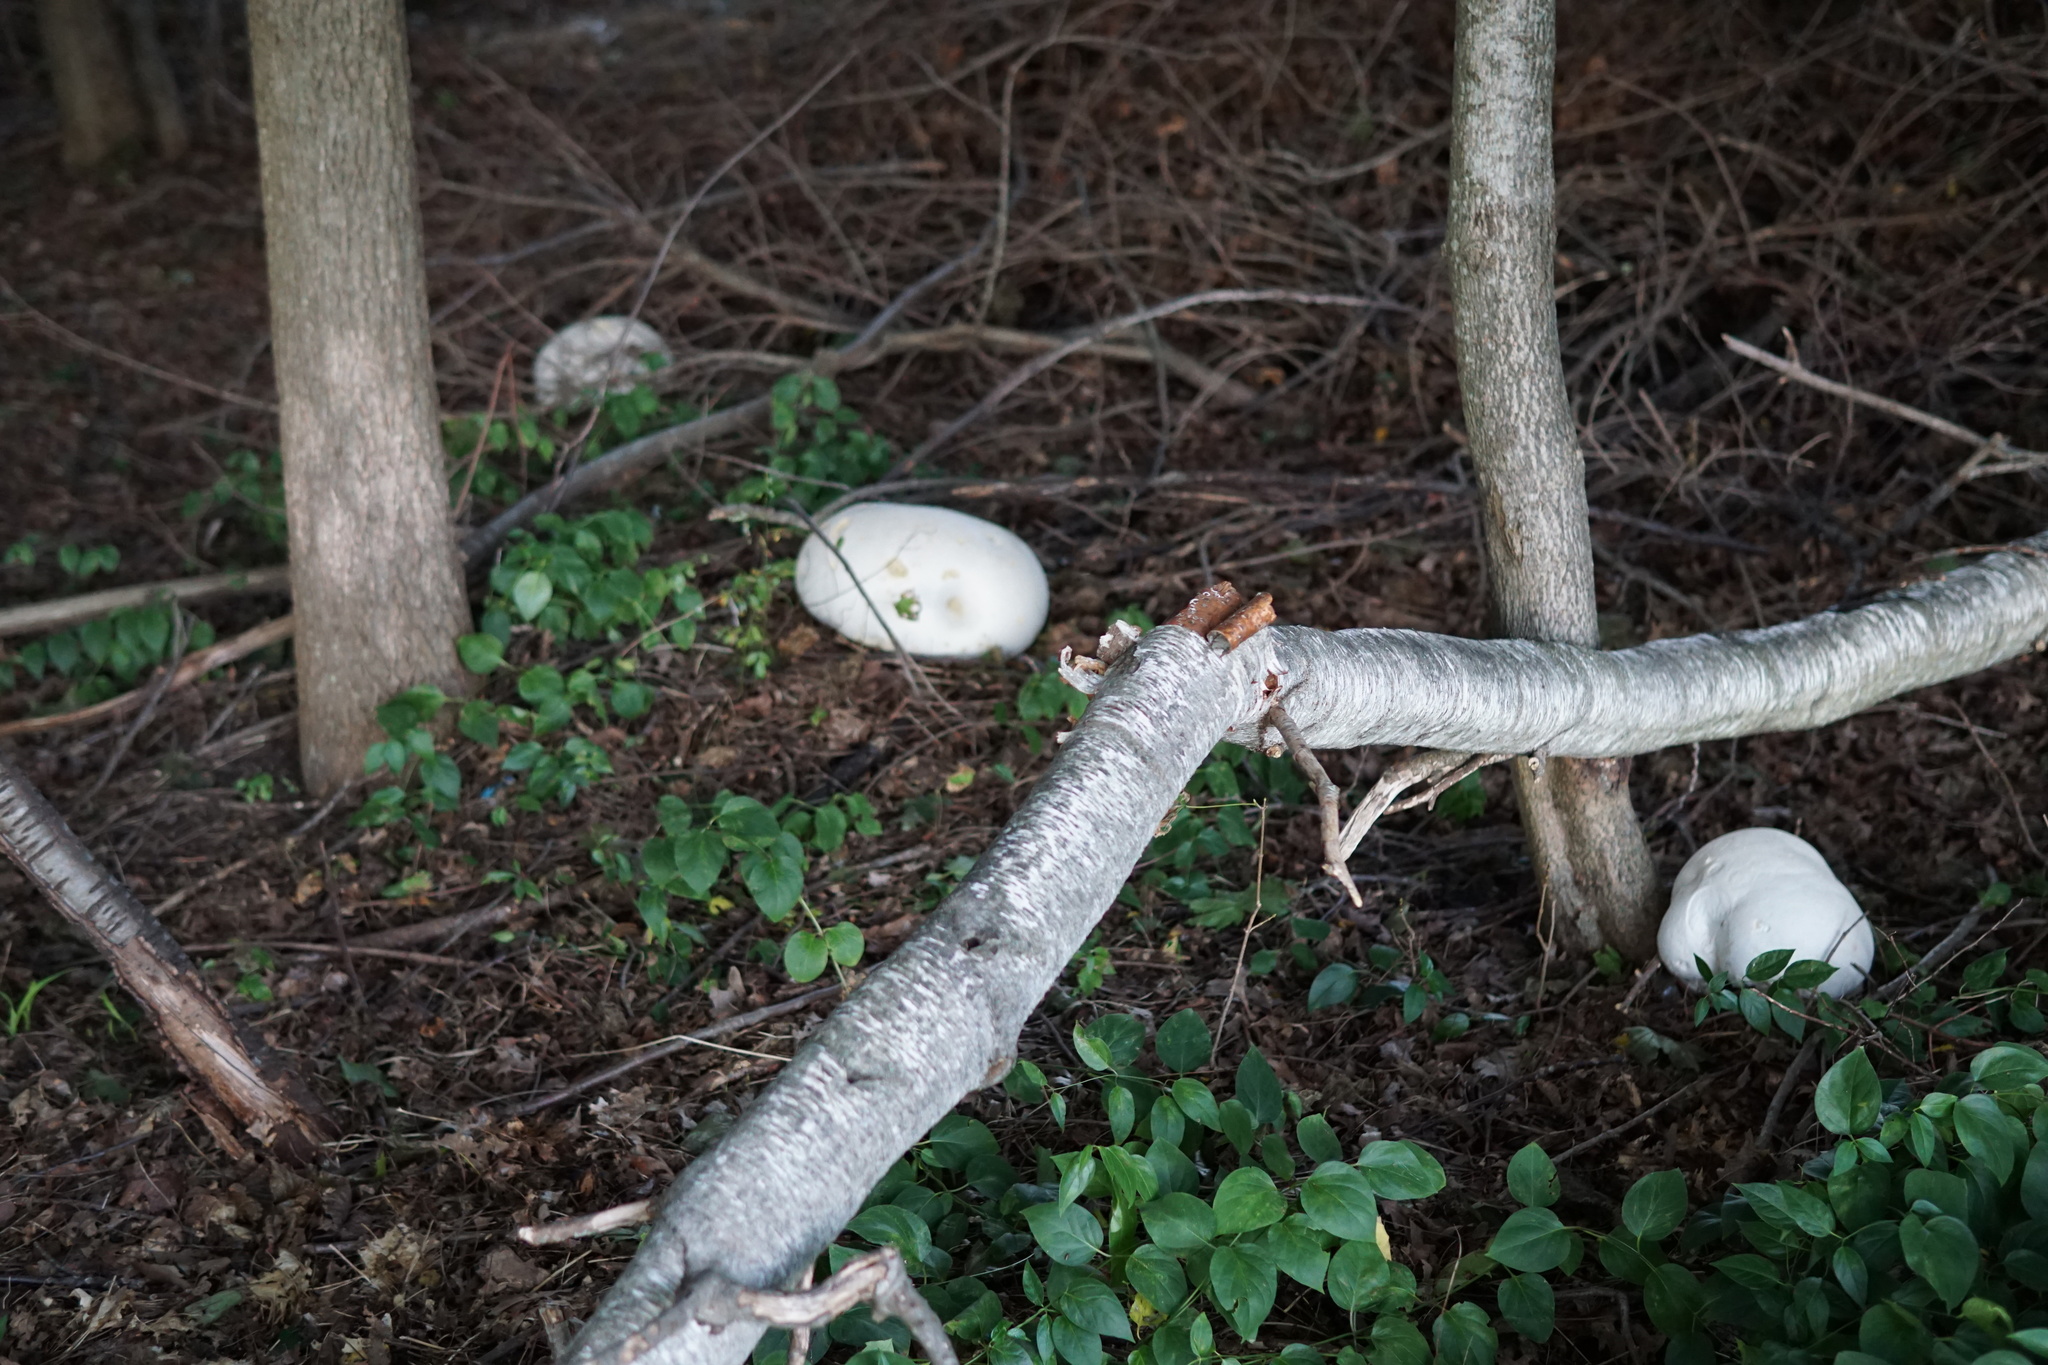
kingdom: Fungi
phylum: Basidiomycota
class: Agaricomycetes
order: Agaricales
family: Lycoperdaceae
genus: Calvatia
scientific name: Calvatia gigantea
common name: Giant puffball
